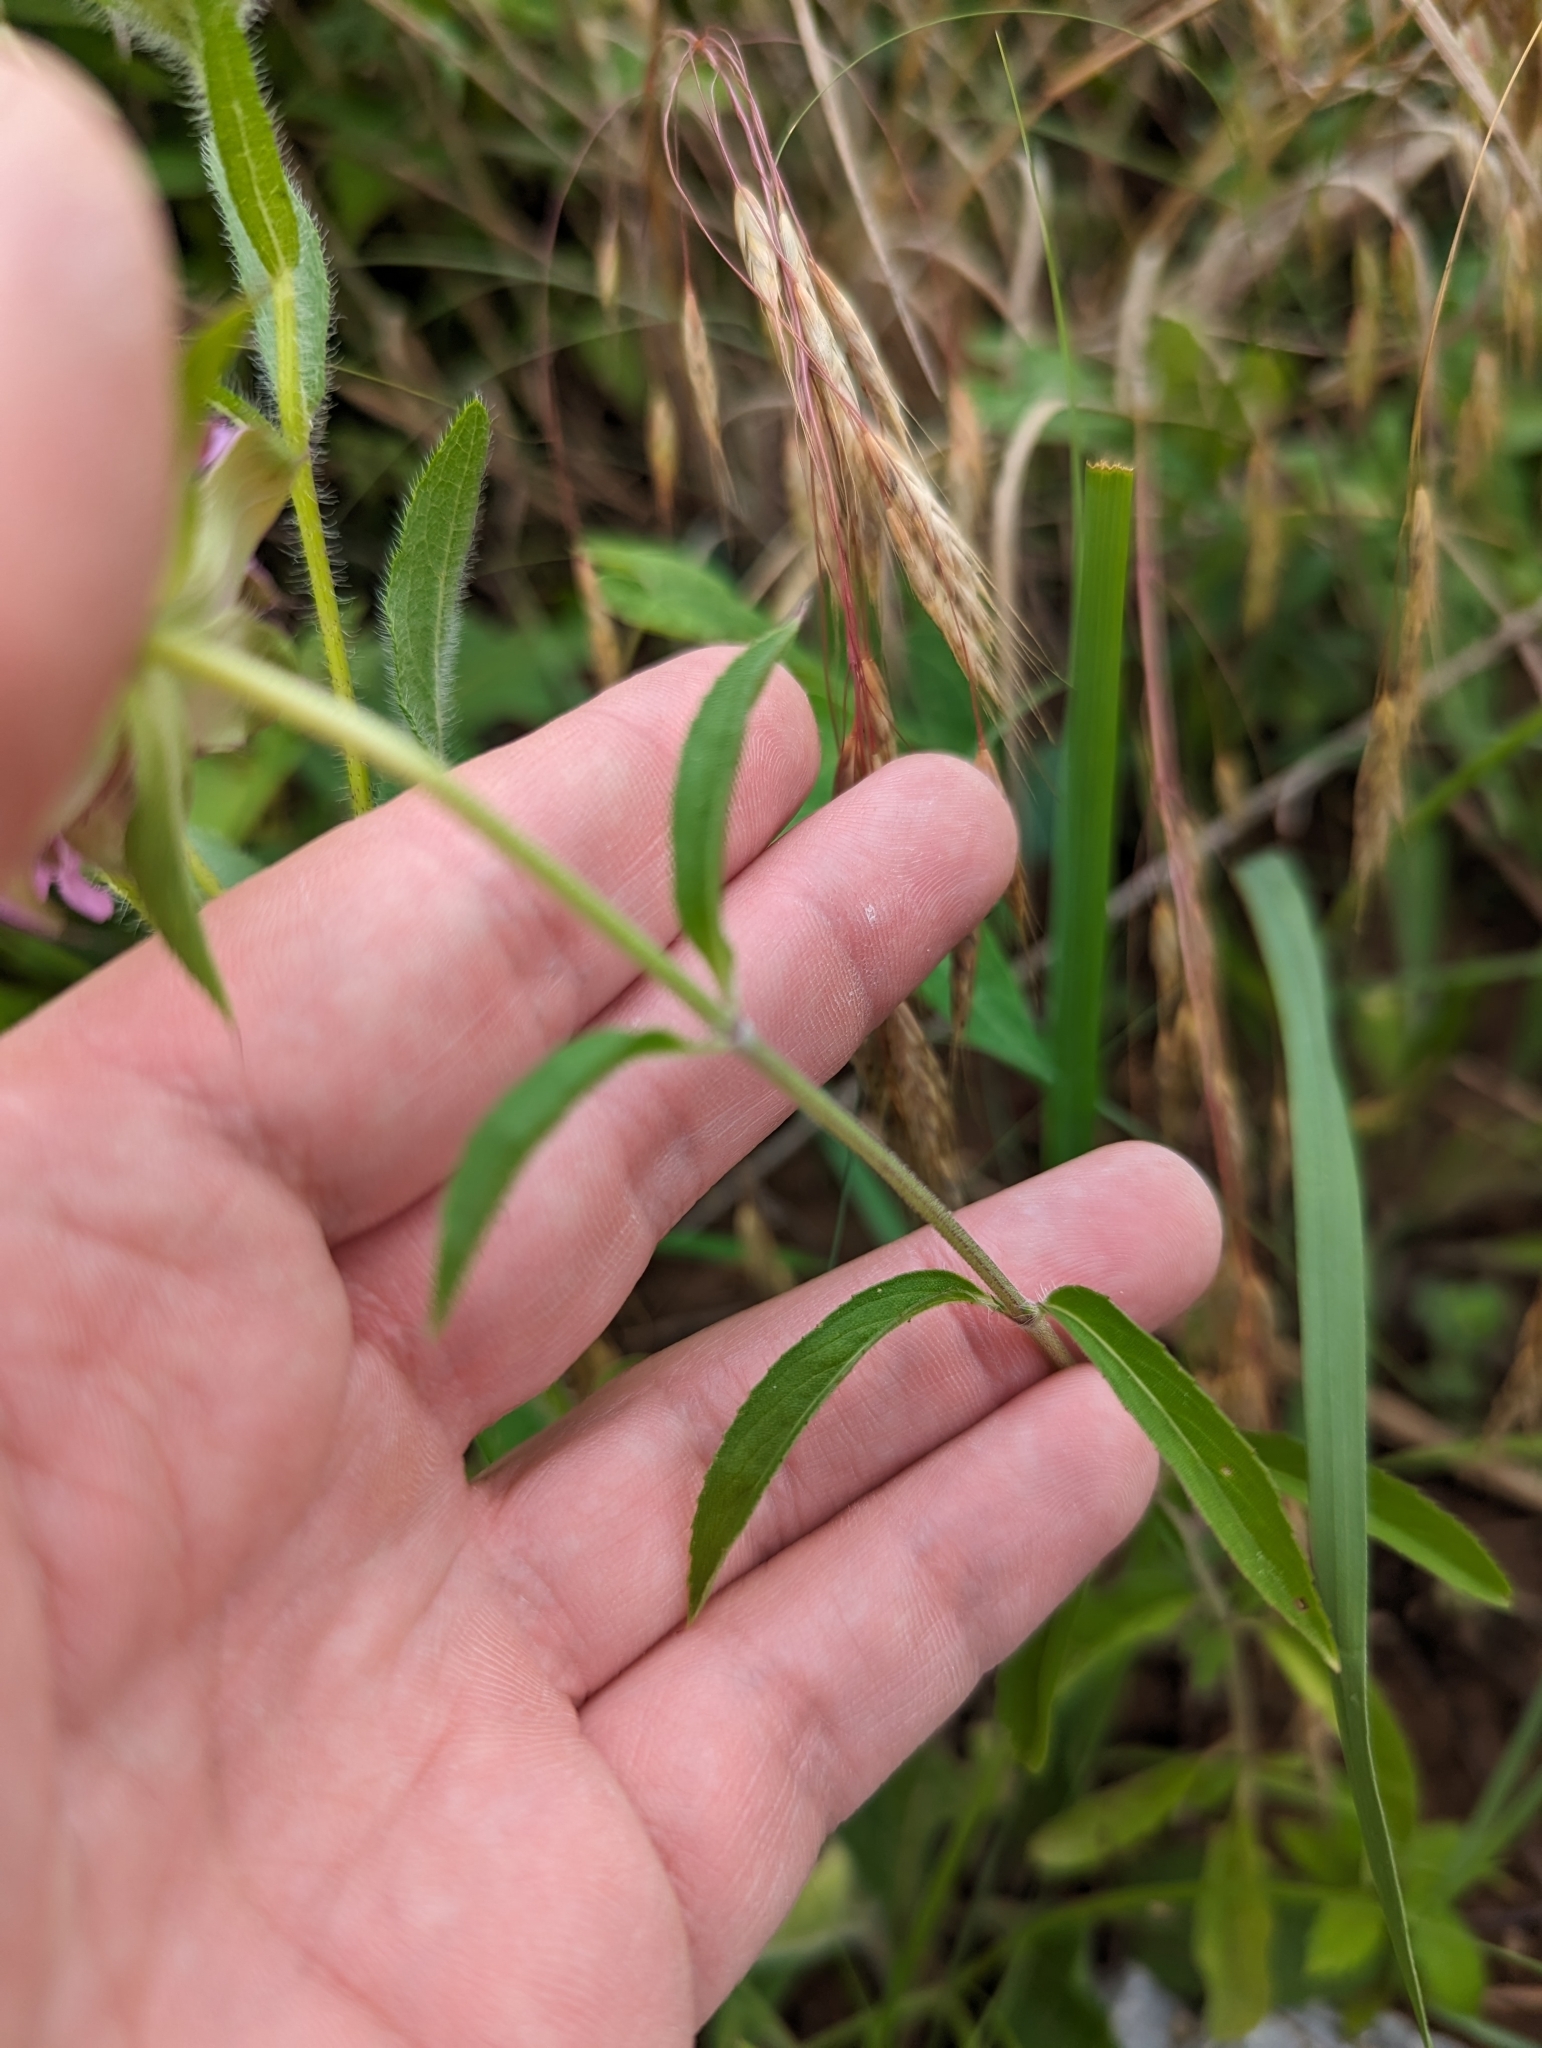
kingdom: Plantae
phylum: Tracheophyta
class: Magnoliopsida
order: Lamiales
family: Lamiaceae
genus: Monarda
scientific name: Monarda citriodora
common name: Lemon beebalm
